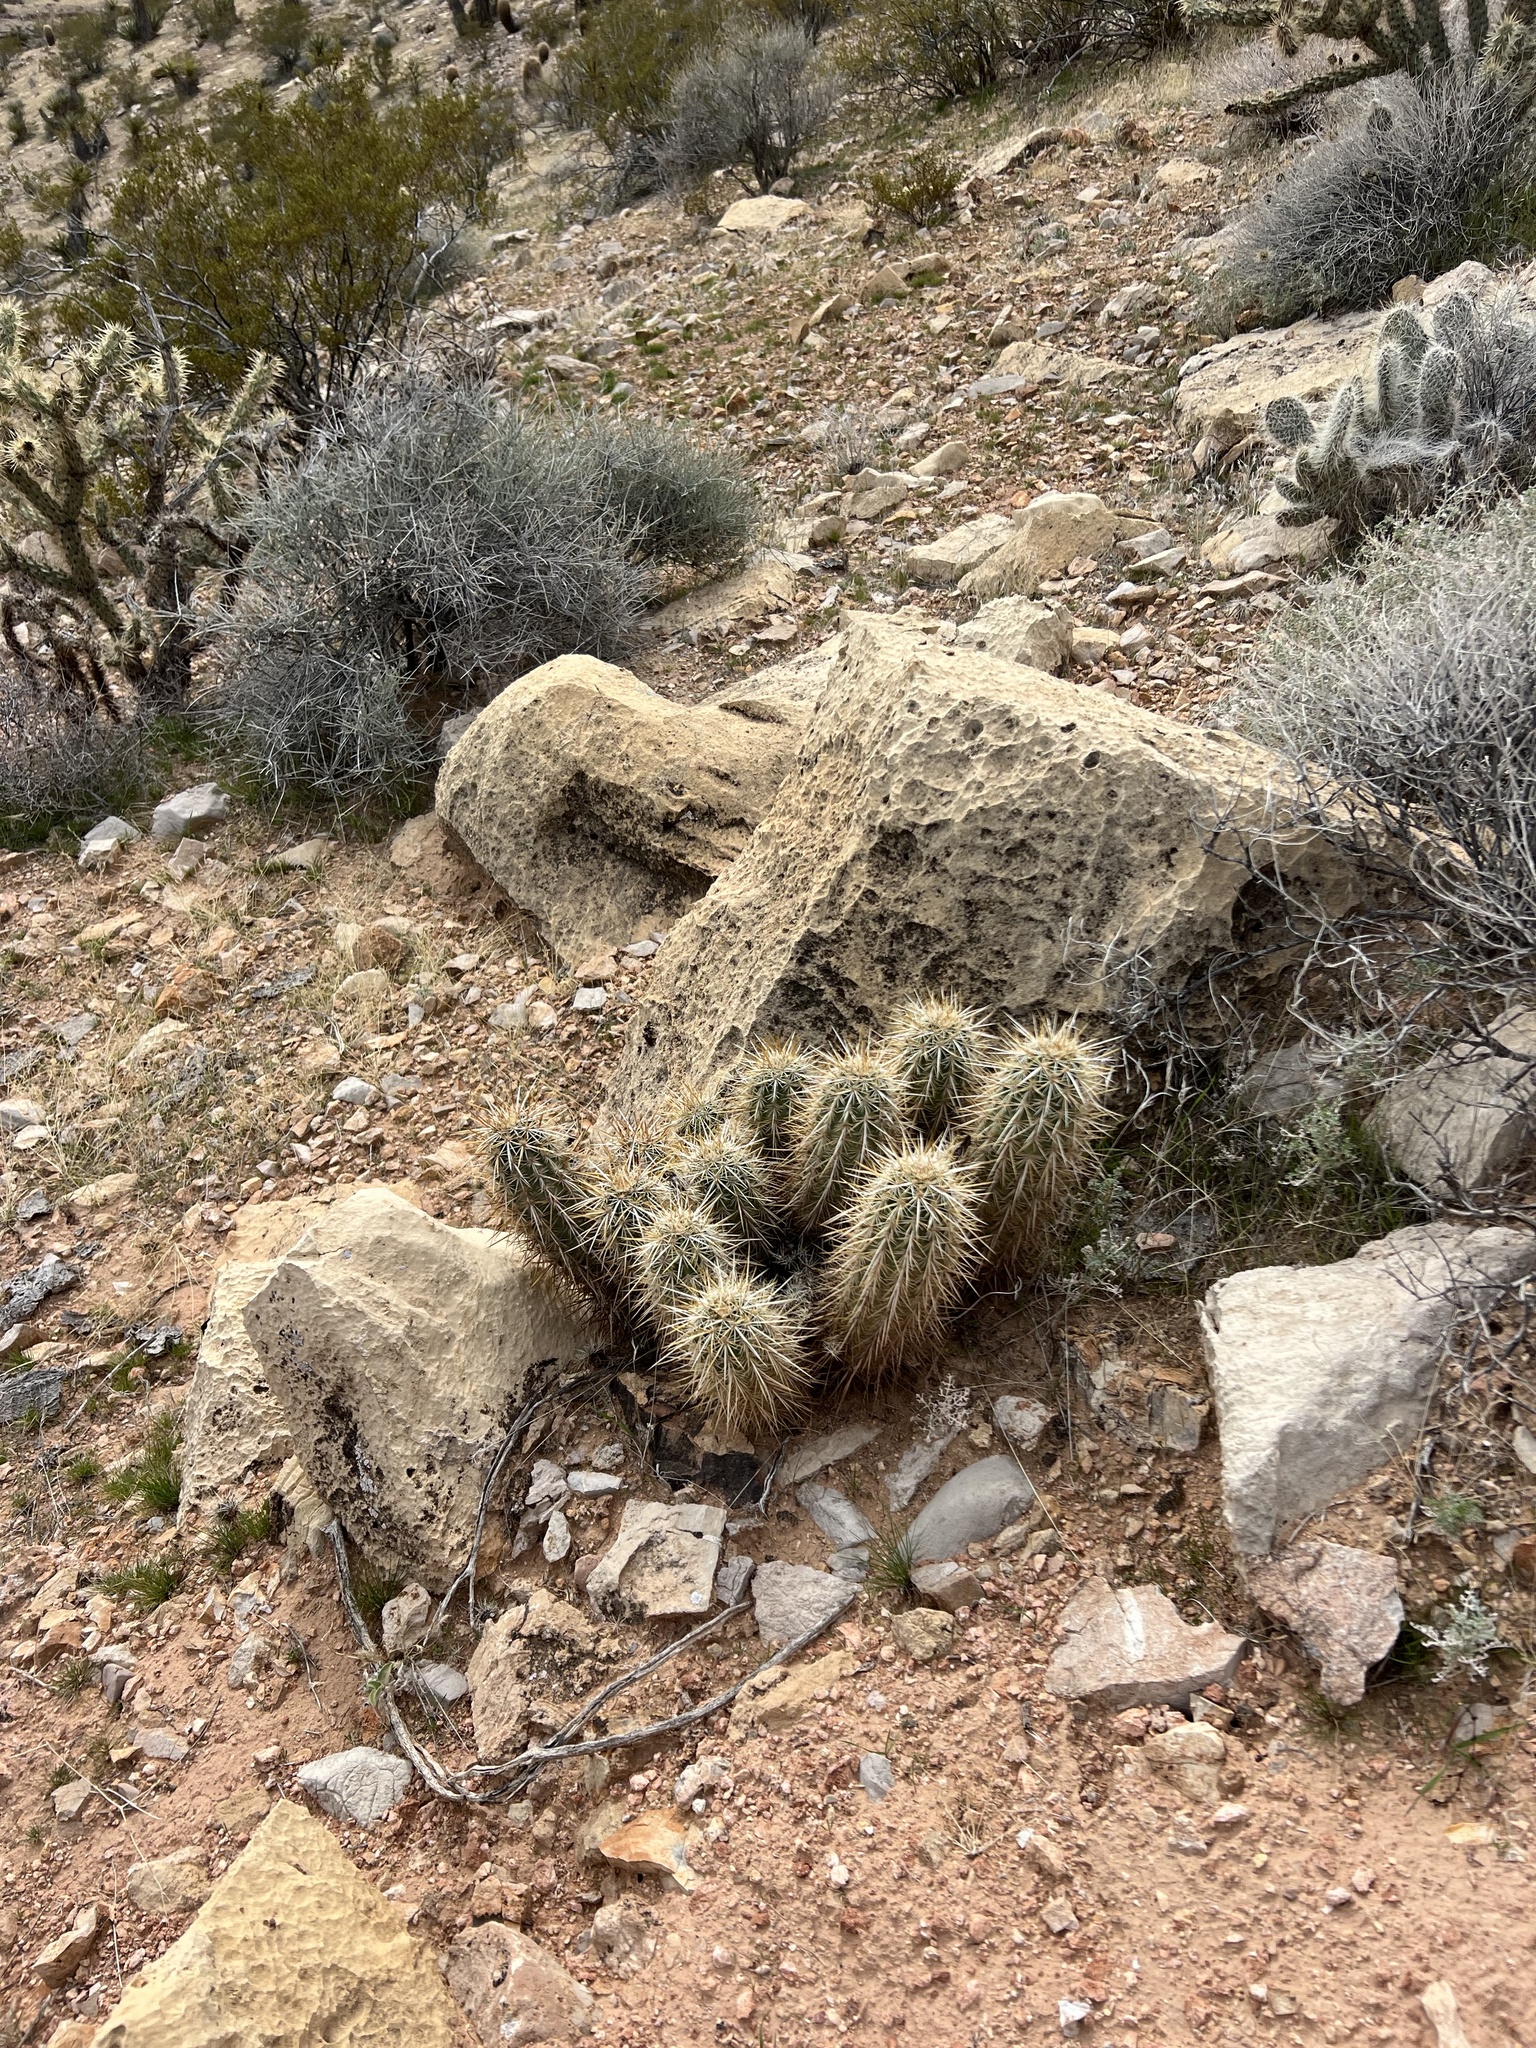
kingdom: Plantae
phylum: Tracheophyta
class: Magnoliopsida
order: Caryophyllales
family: Cactaceae
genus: Echinocereus
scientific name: Echinocereus engelmannii
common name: Engelmann's hedgehog cactus
